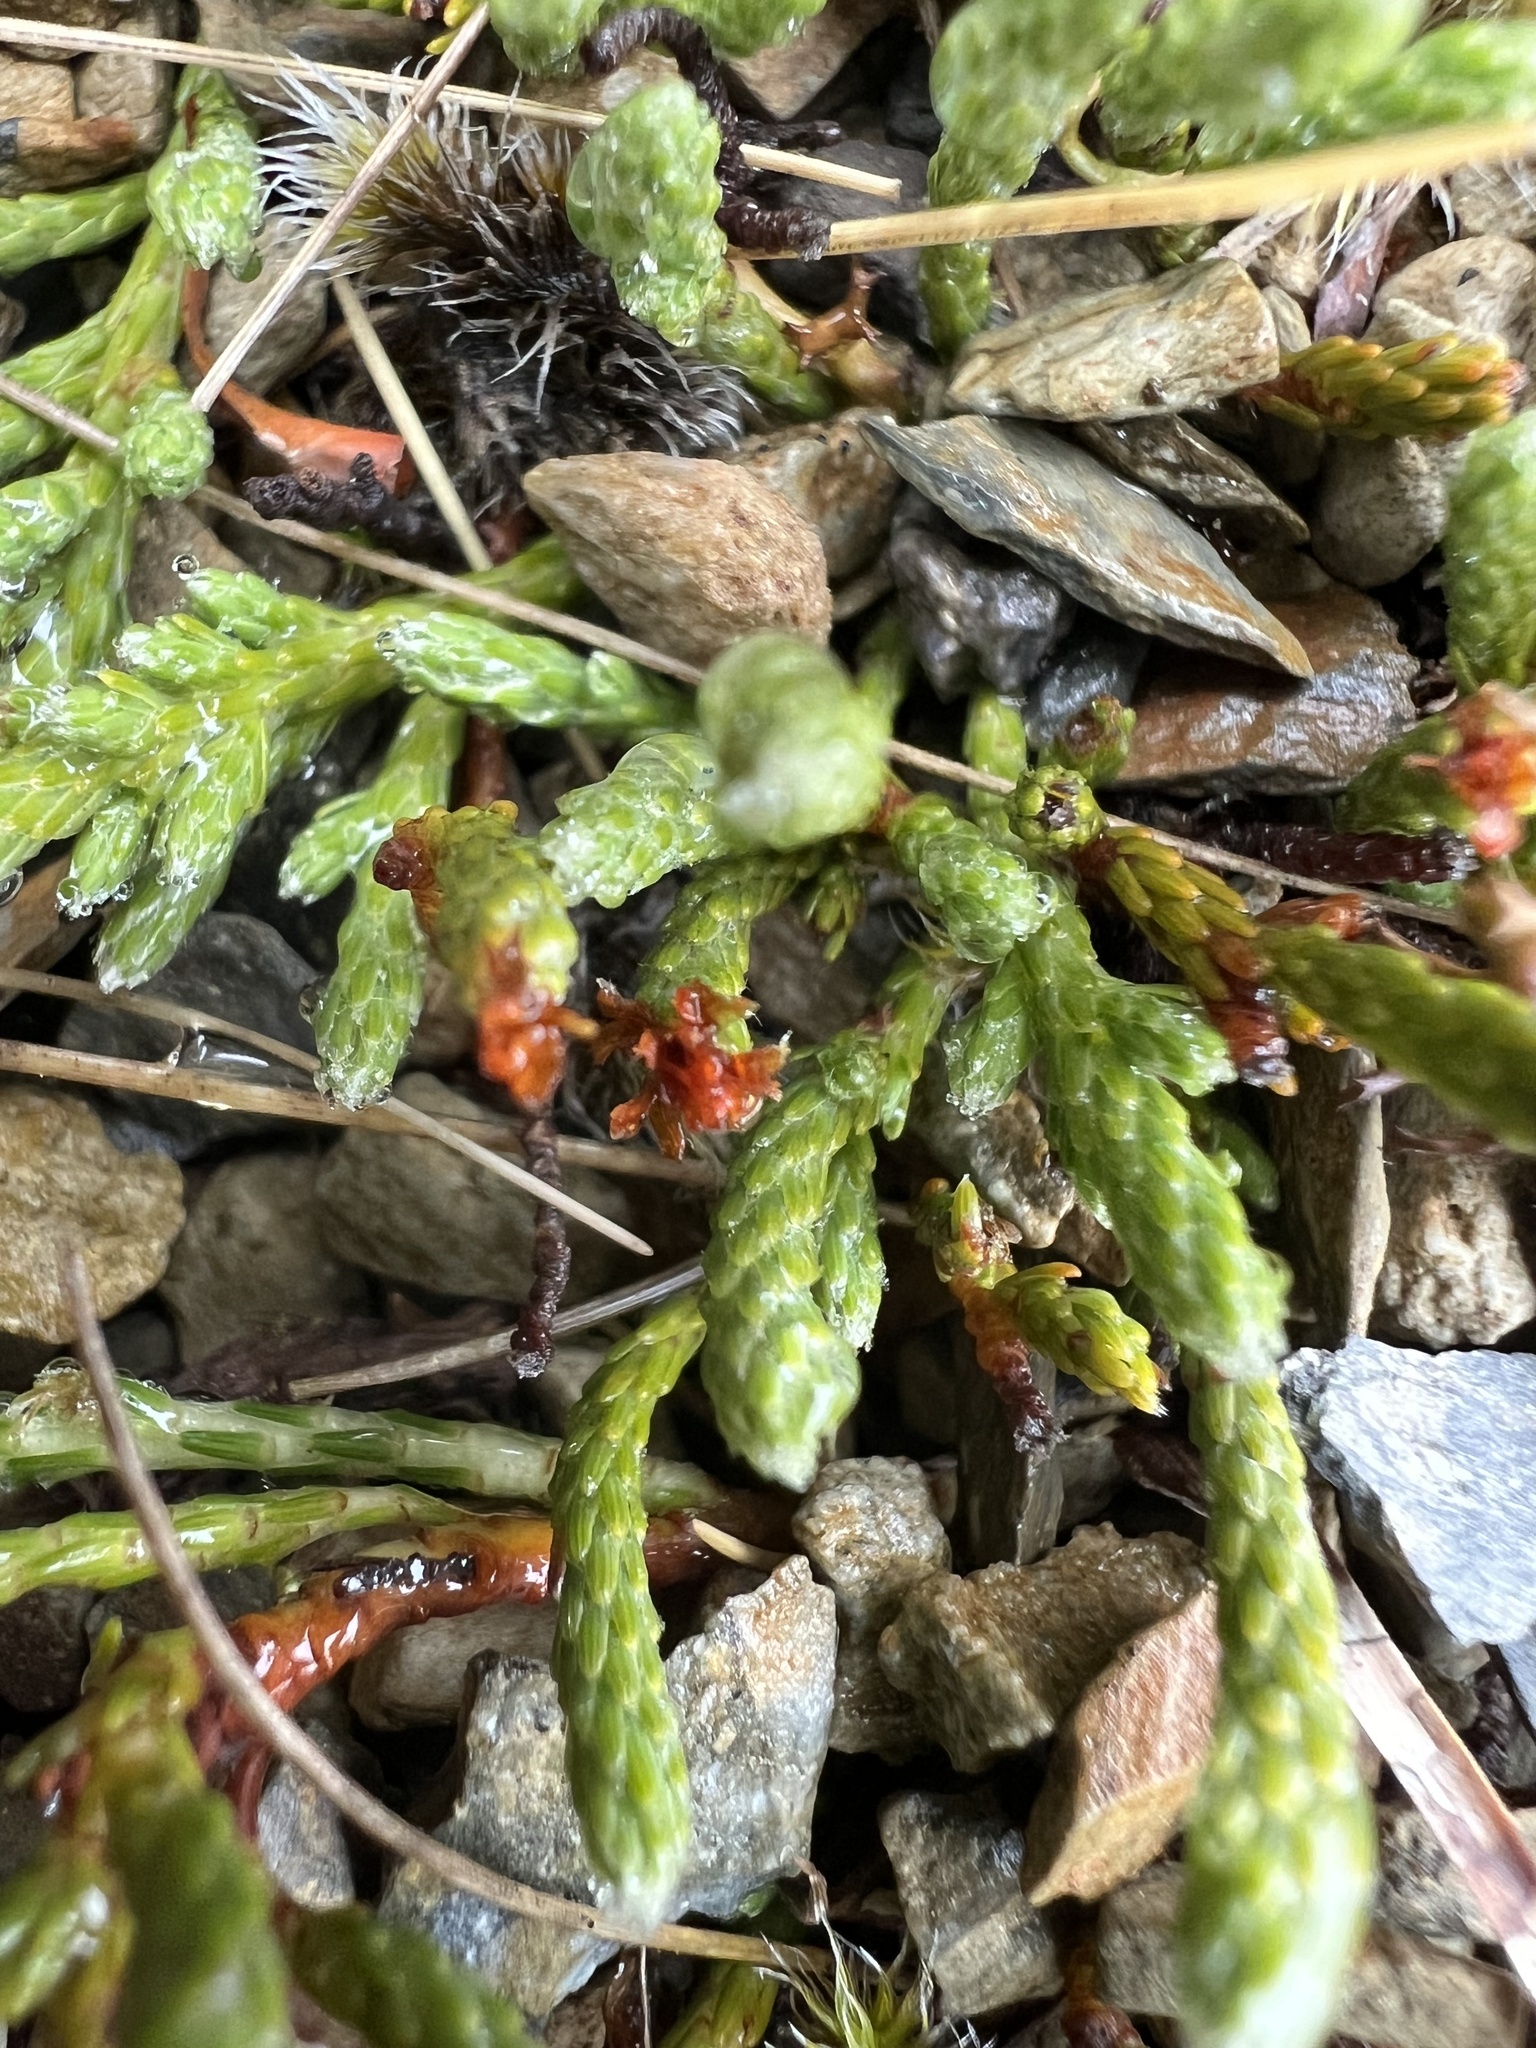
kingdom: Plantae
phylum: Tracheophyta
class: Magnoliopsida
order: Malvales
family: Thymelaeaceae
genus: Kelleria
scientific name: Kelleria dieffenbachii
